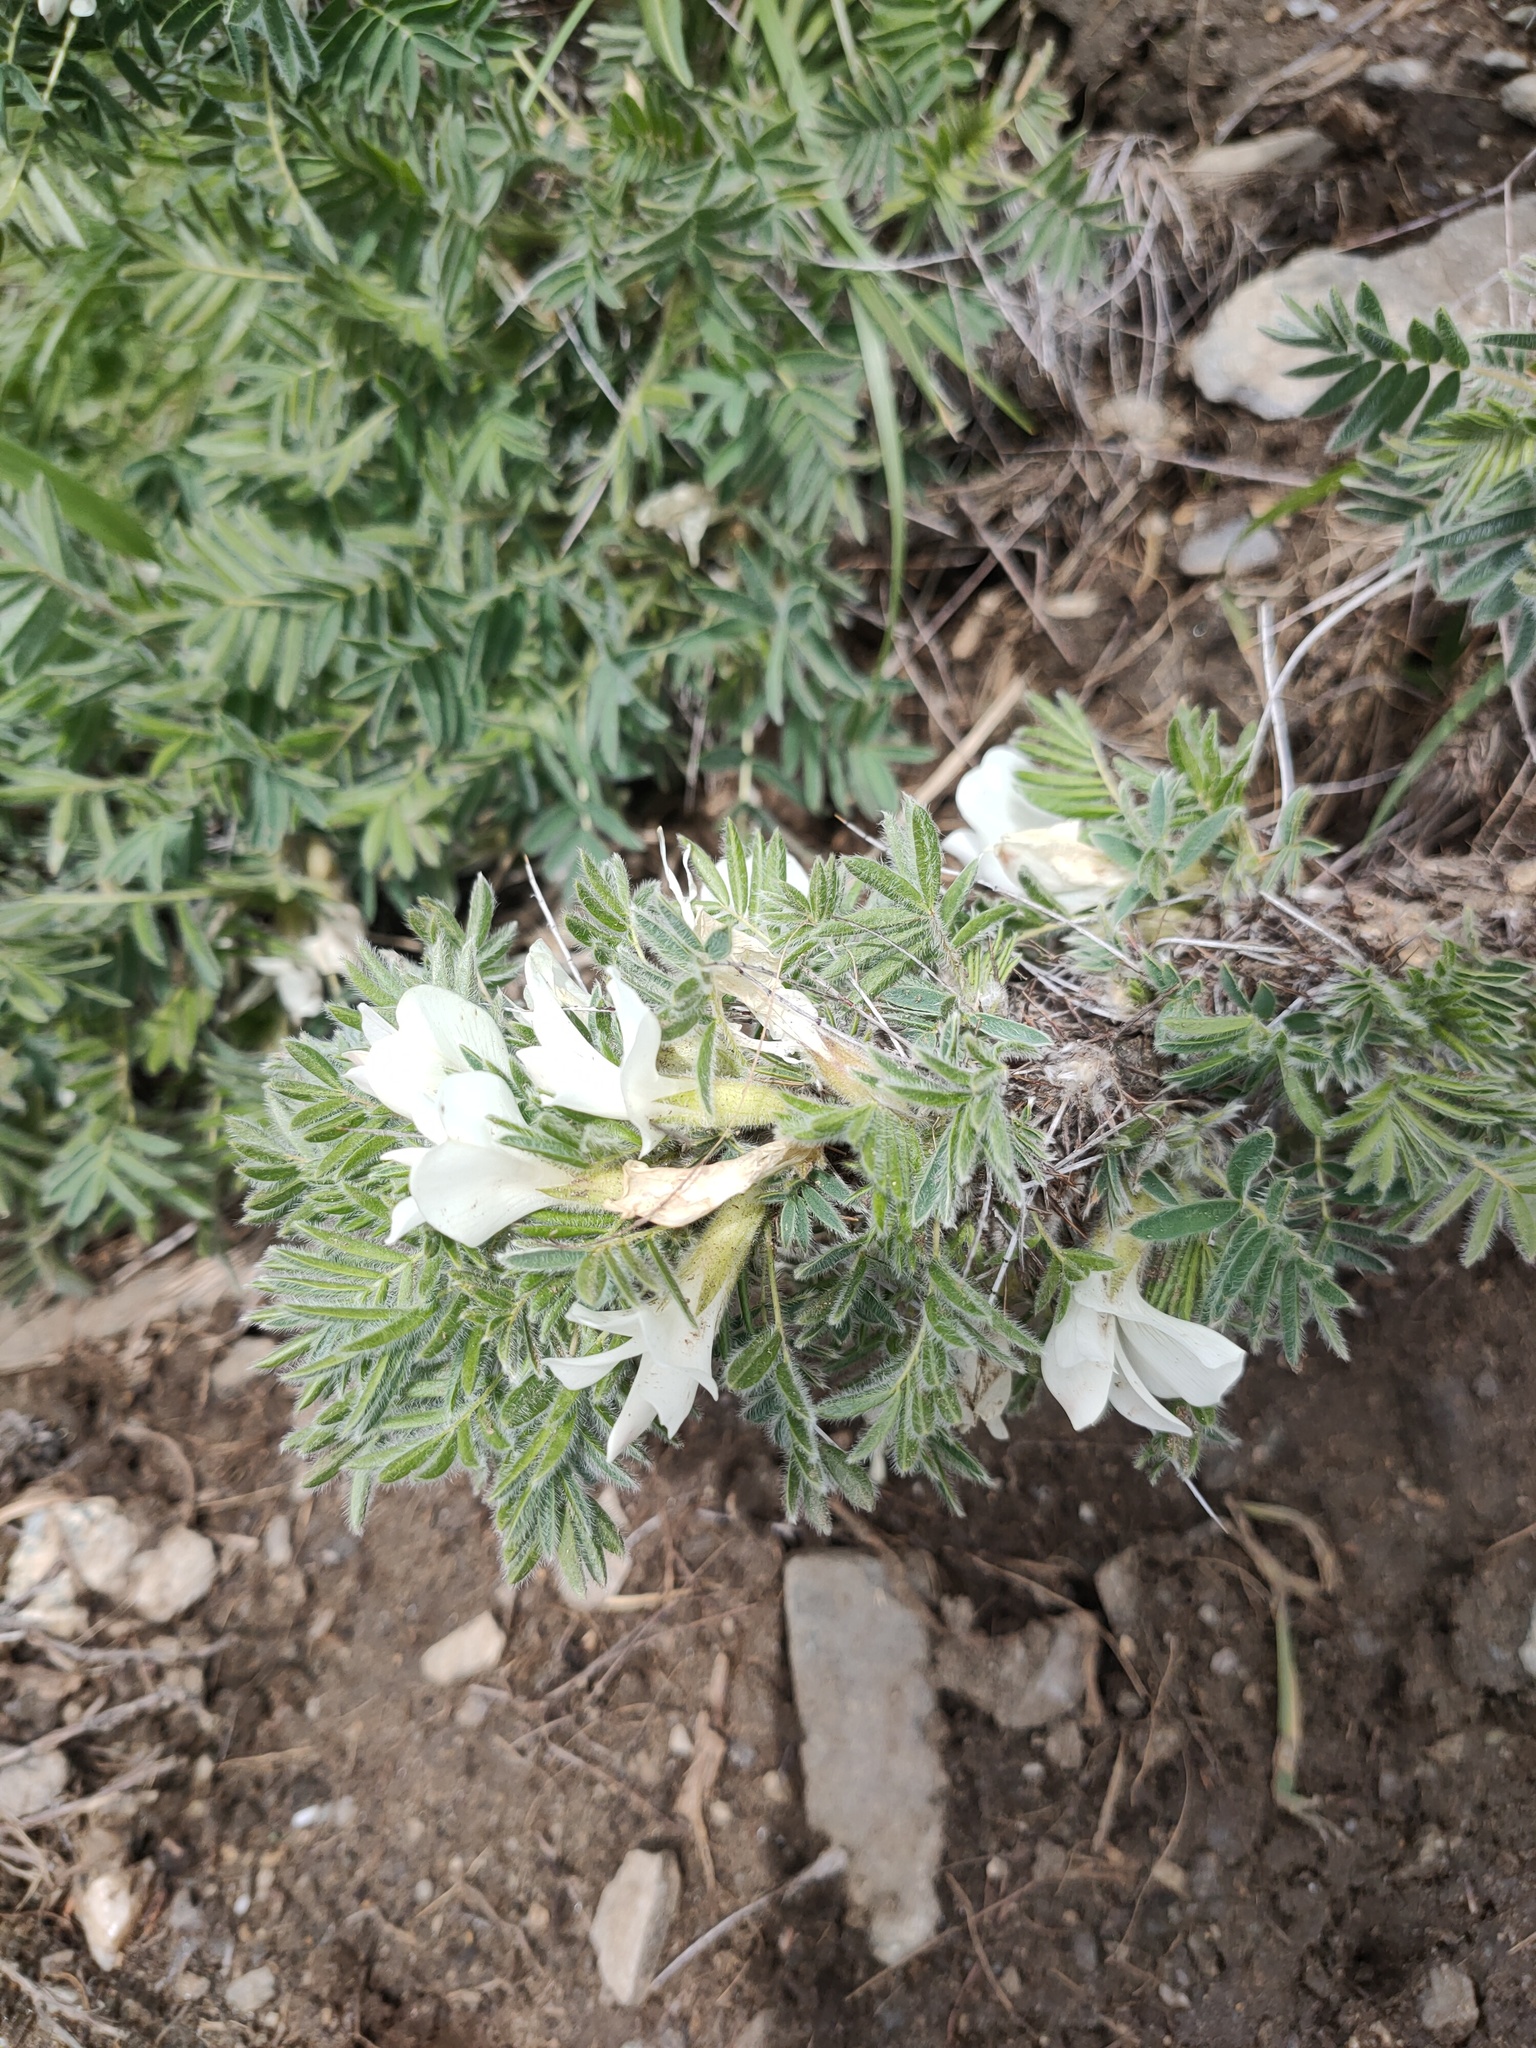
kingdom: Plantae
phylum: Tracheophyta
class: Magnoliopsida
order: Fabales
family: Fabaceae
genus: Caragana
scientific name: Caragana jubata
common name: Shag-spine peashrub
